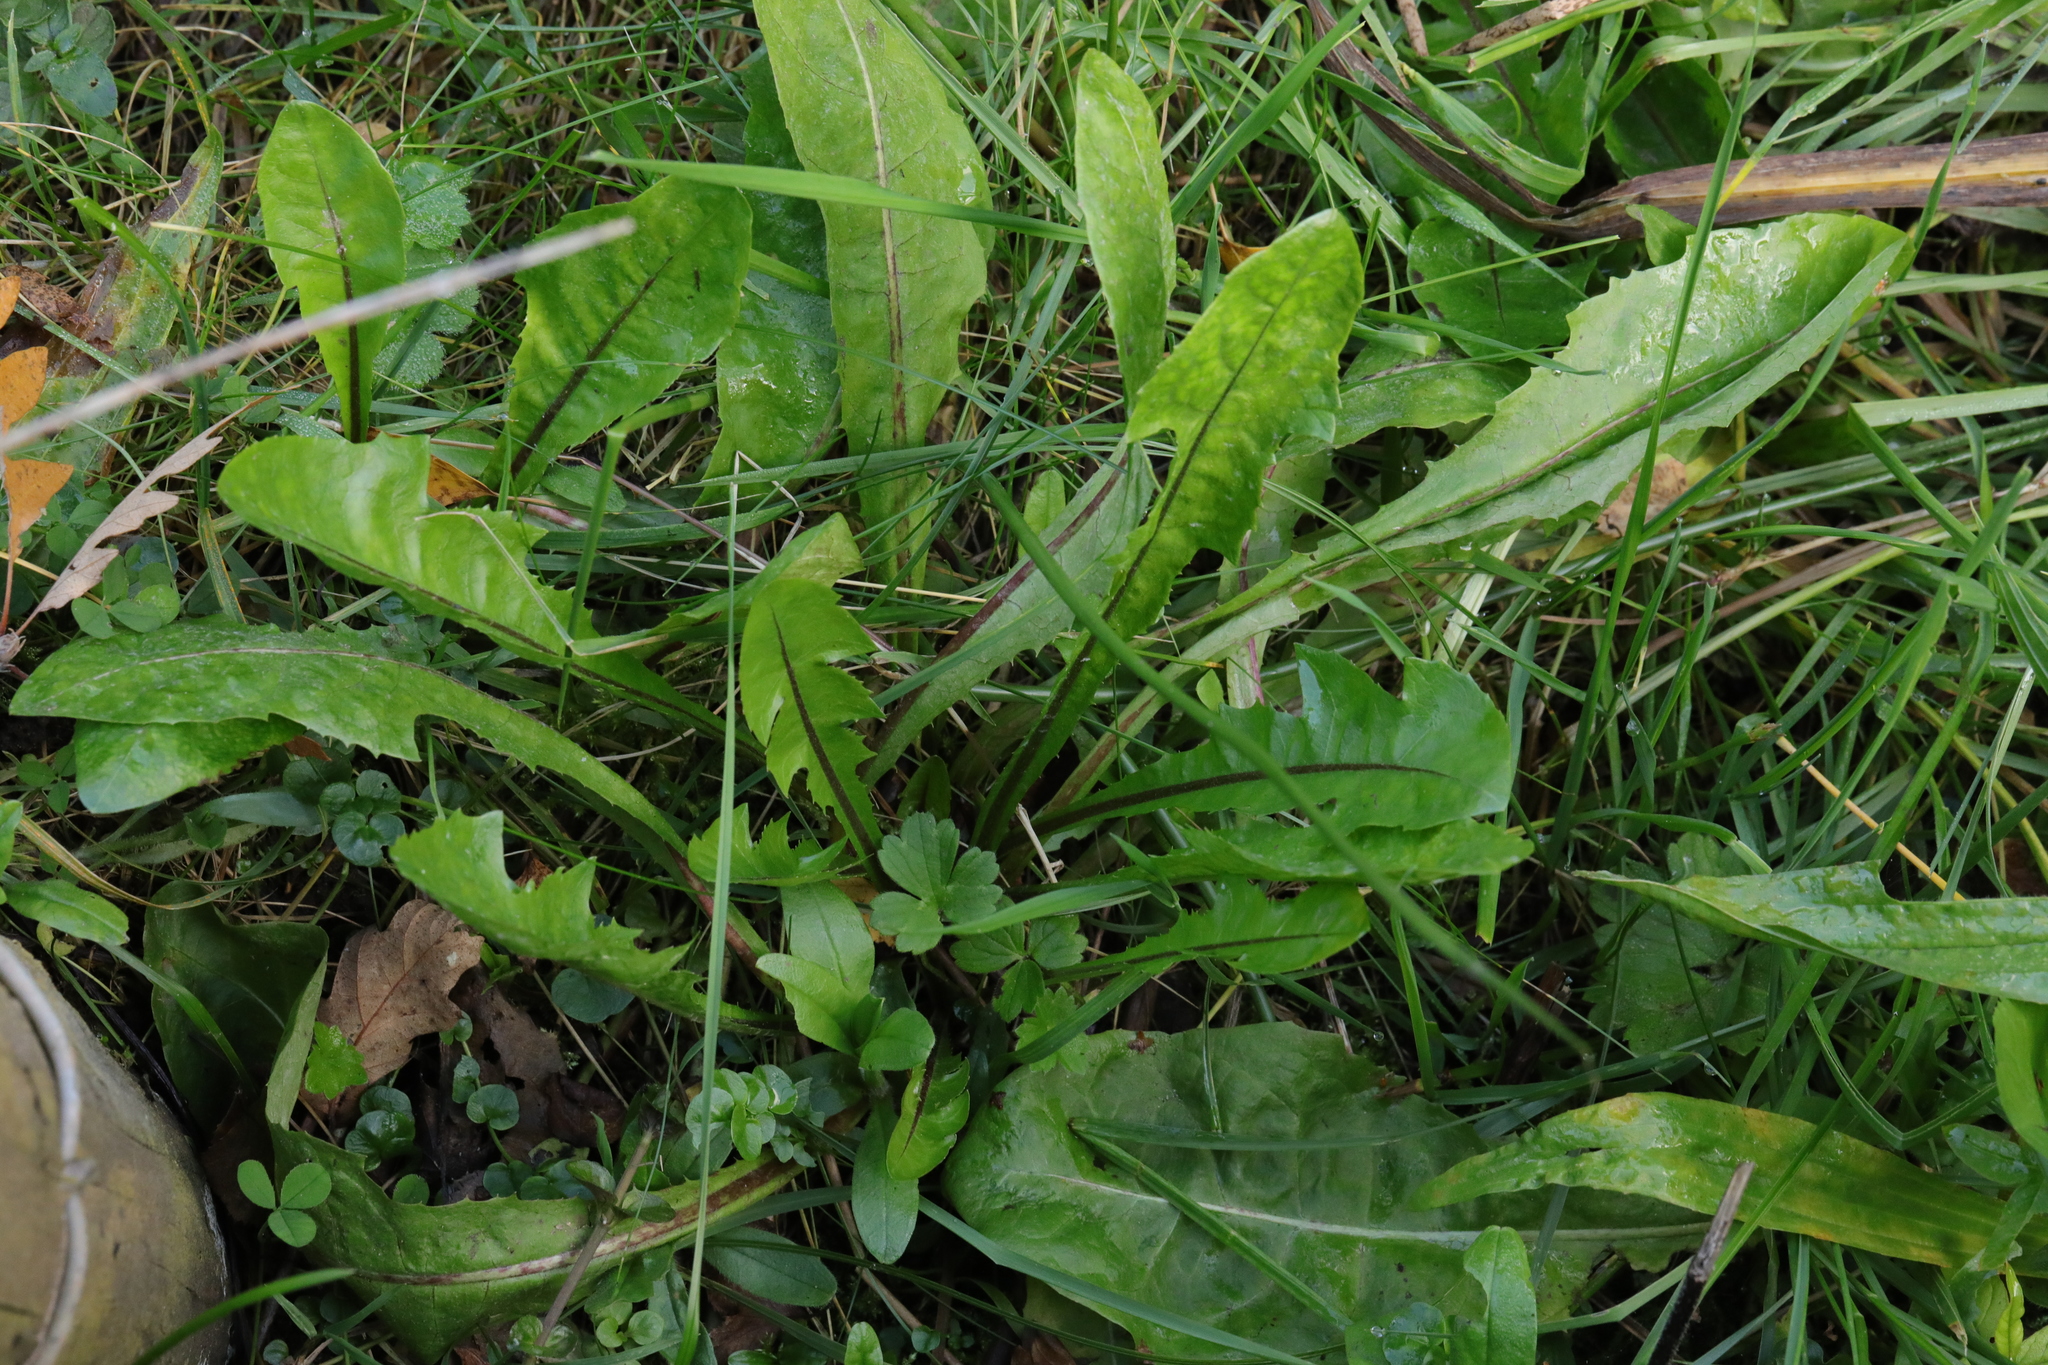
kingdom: Plantae
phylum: Tracheophyta
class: Magnoliopsida
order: Asterales
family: Asteraceae
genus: Taraxacum
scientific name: Taraxacum officinale
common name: Common dandelion
